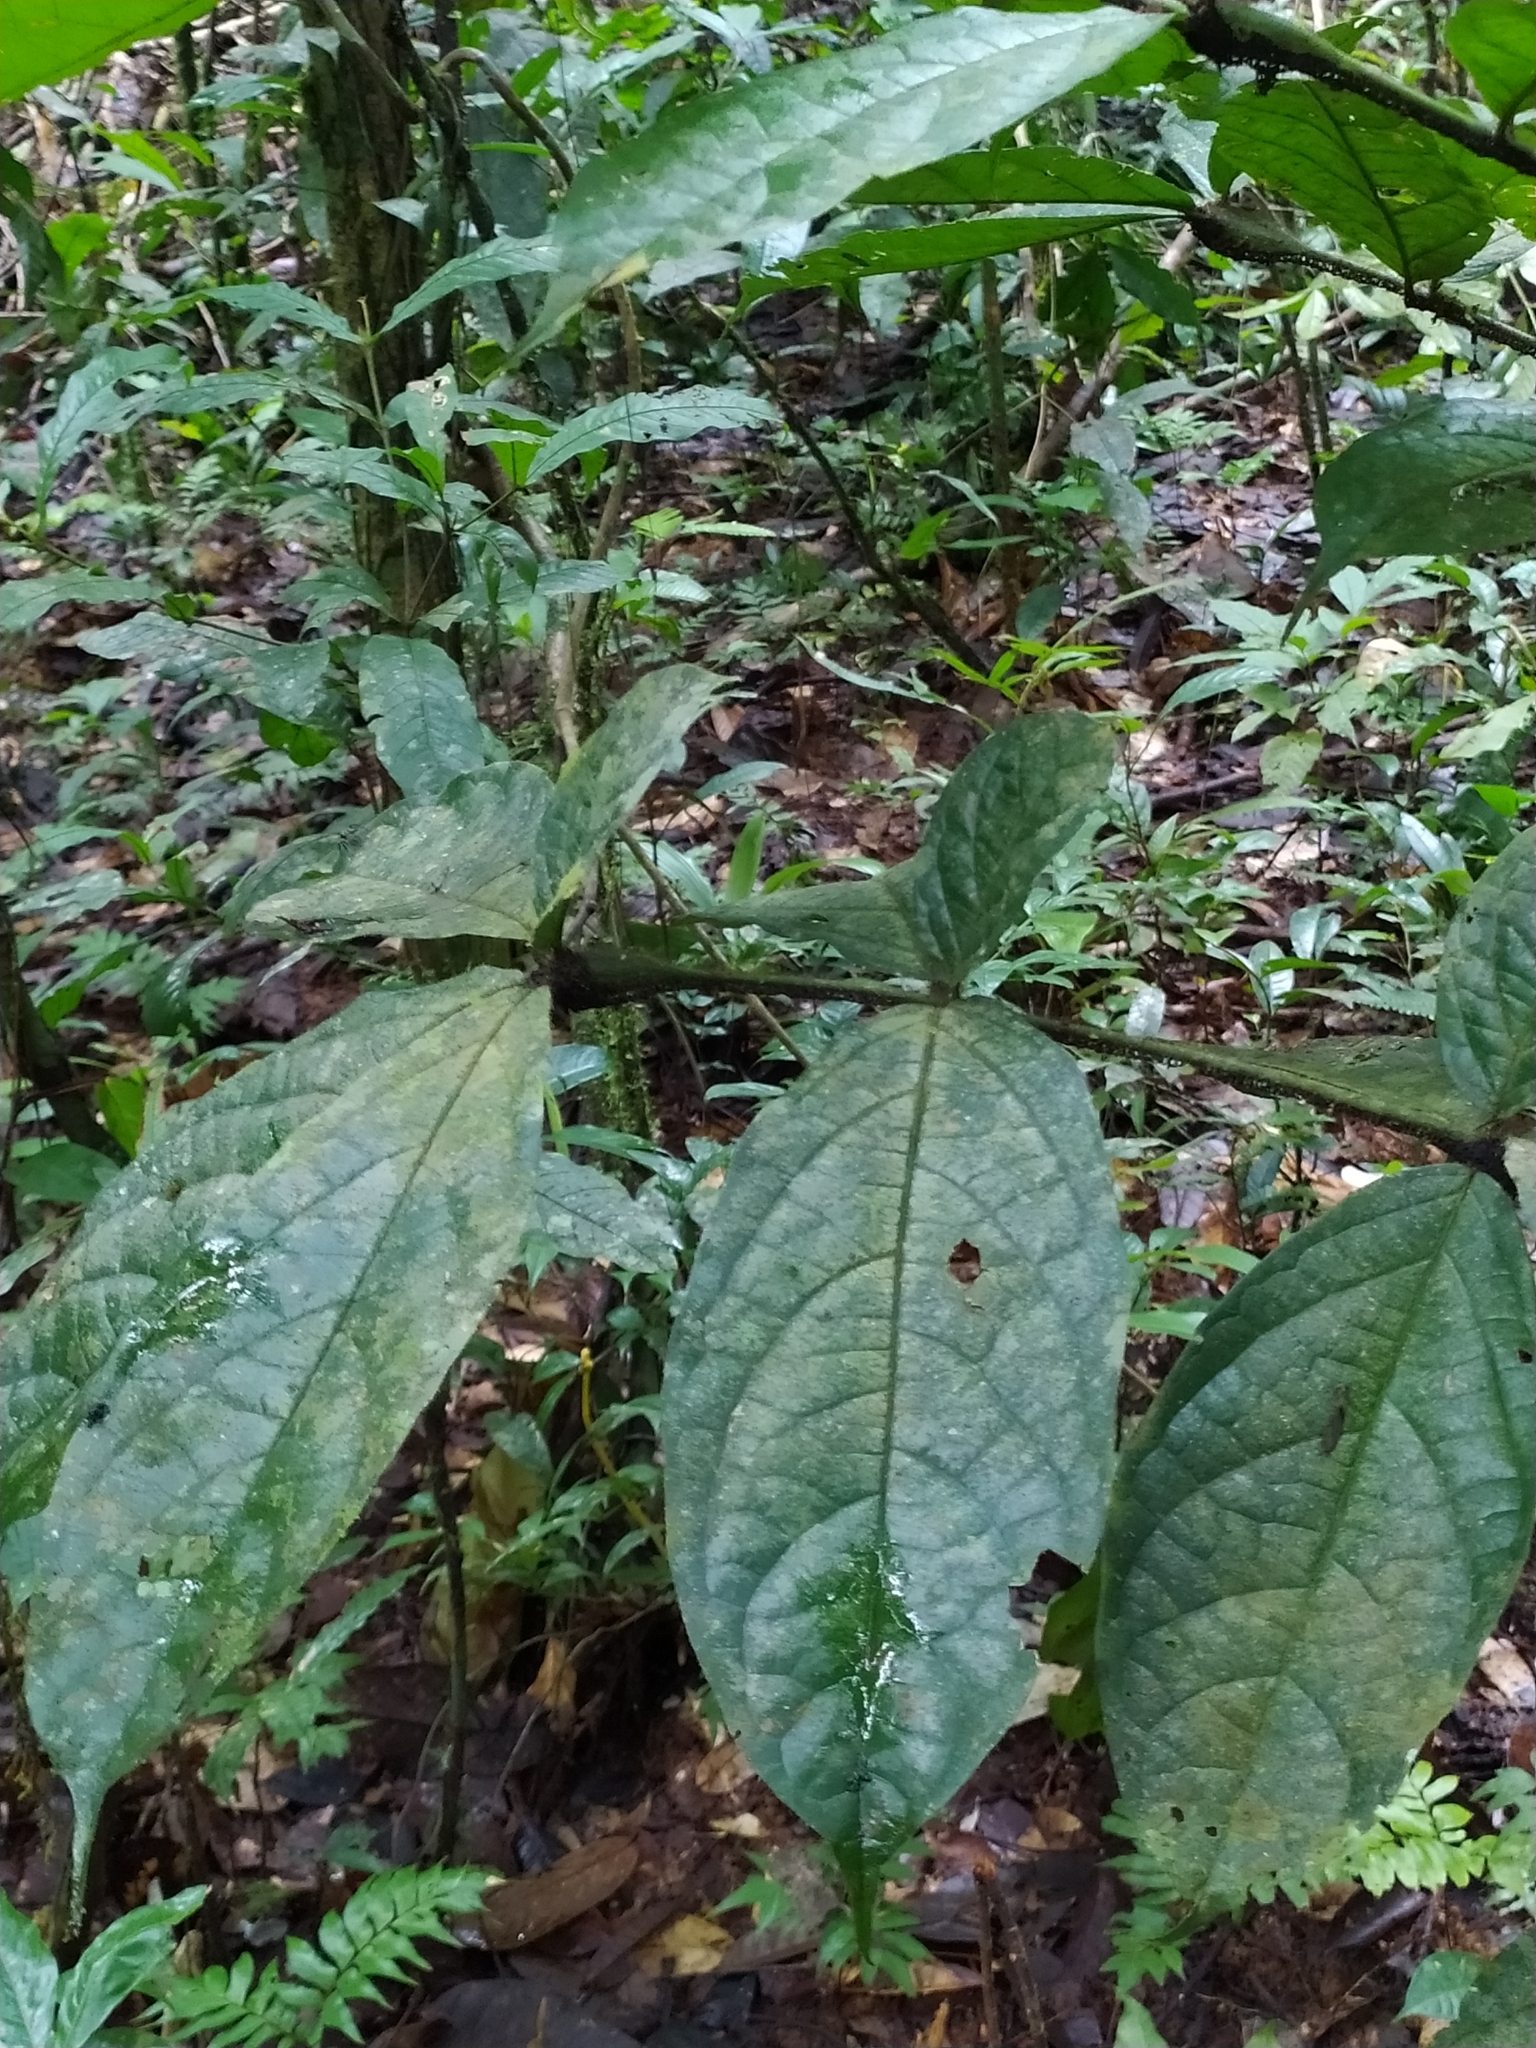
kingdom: Plantae
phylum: Tracheophyta
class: Magnoliopsida
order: Boraginales
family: Cordiaceae
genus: Cordia
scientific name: Cordia nodosa
